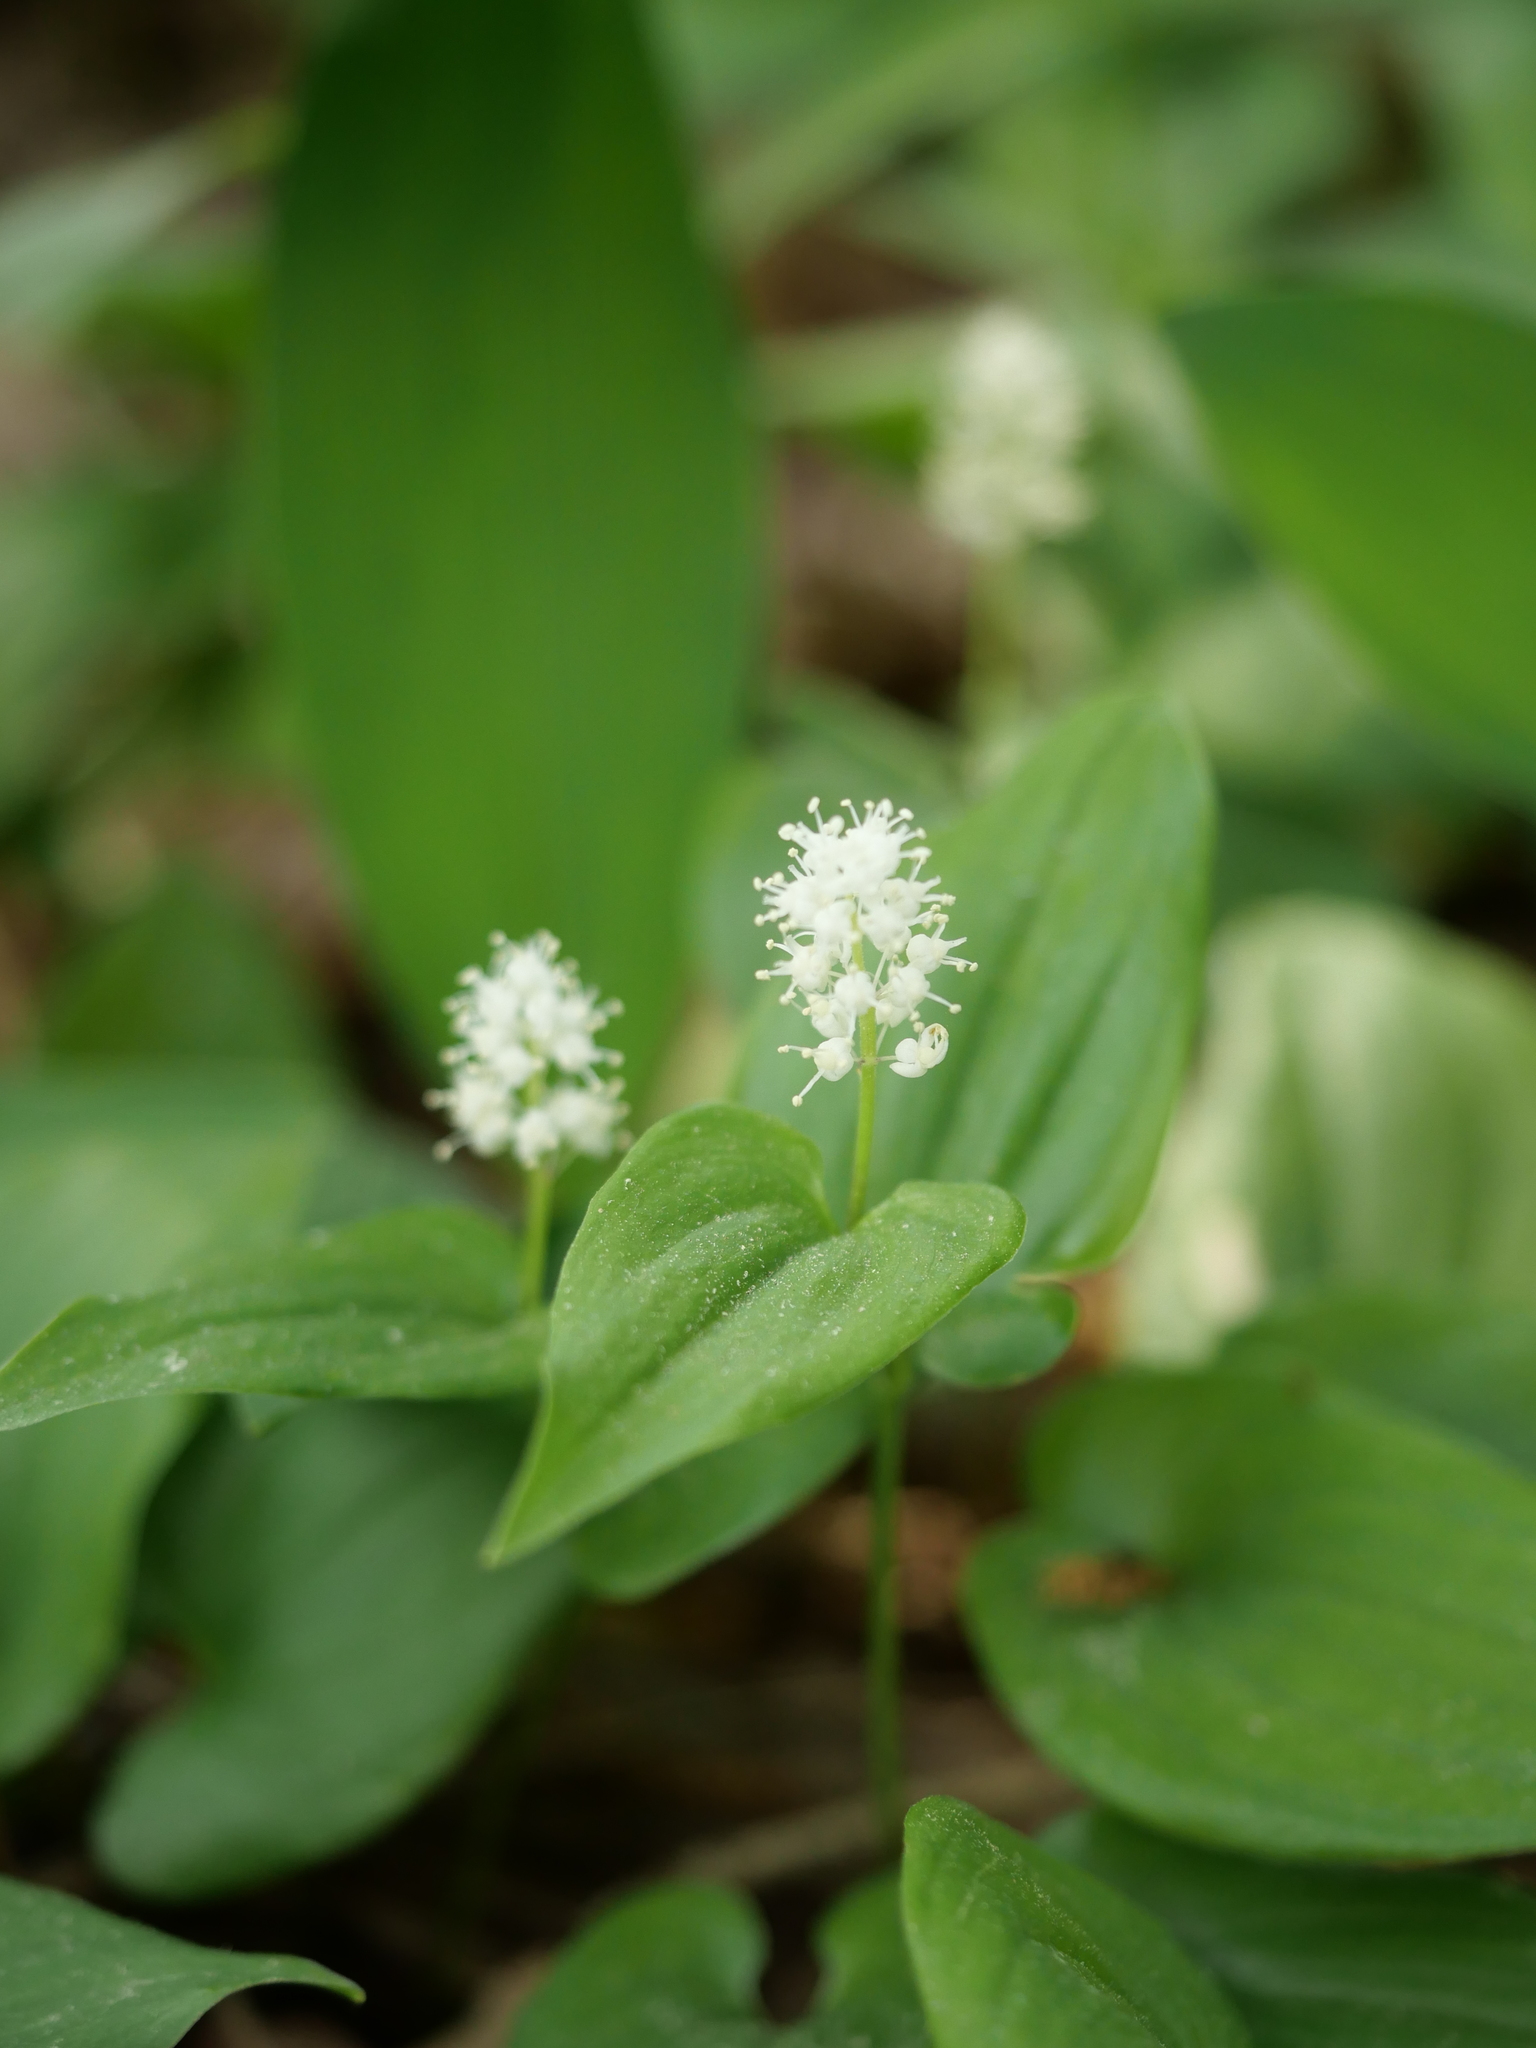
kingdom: Plantae
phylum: Tracheophyta
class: Liliopsida
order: Asparagales
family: Asparagaceae
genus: Maianthemum
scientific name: Maianthemum bifolium
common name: May lily
